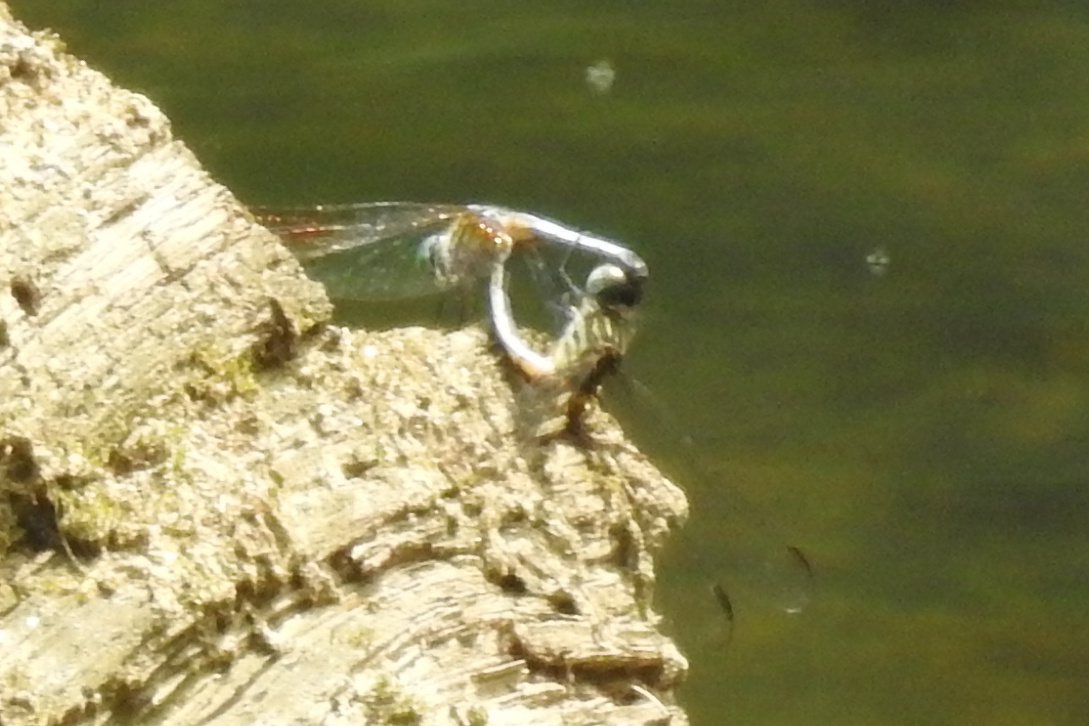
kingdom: Animalia
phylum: Arthropoda
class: Insecta
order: Odonata
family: Libellulidae
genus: Pachydiplax
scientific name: Pachydiplax longipennis
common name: Blue dasher
